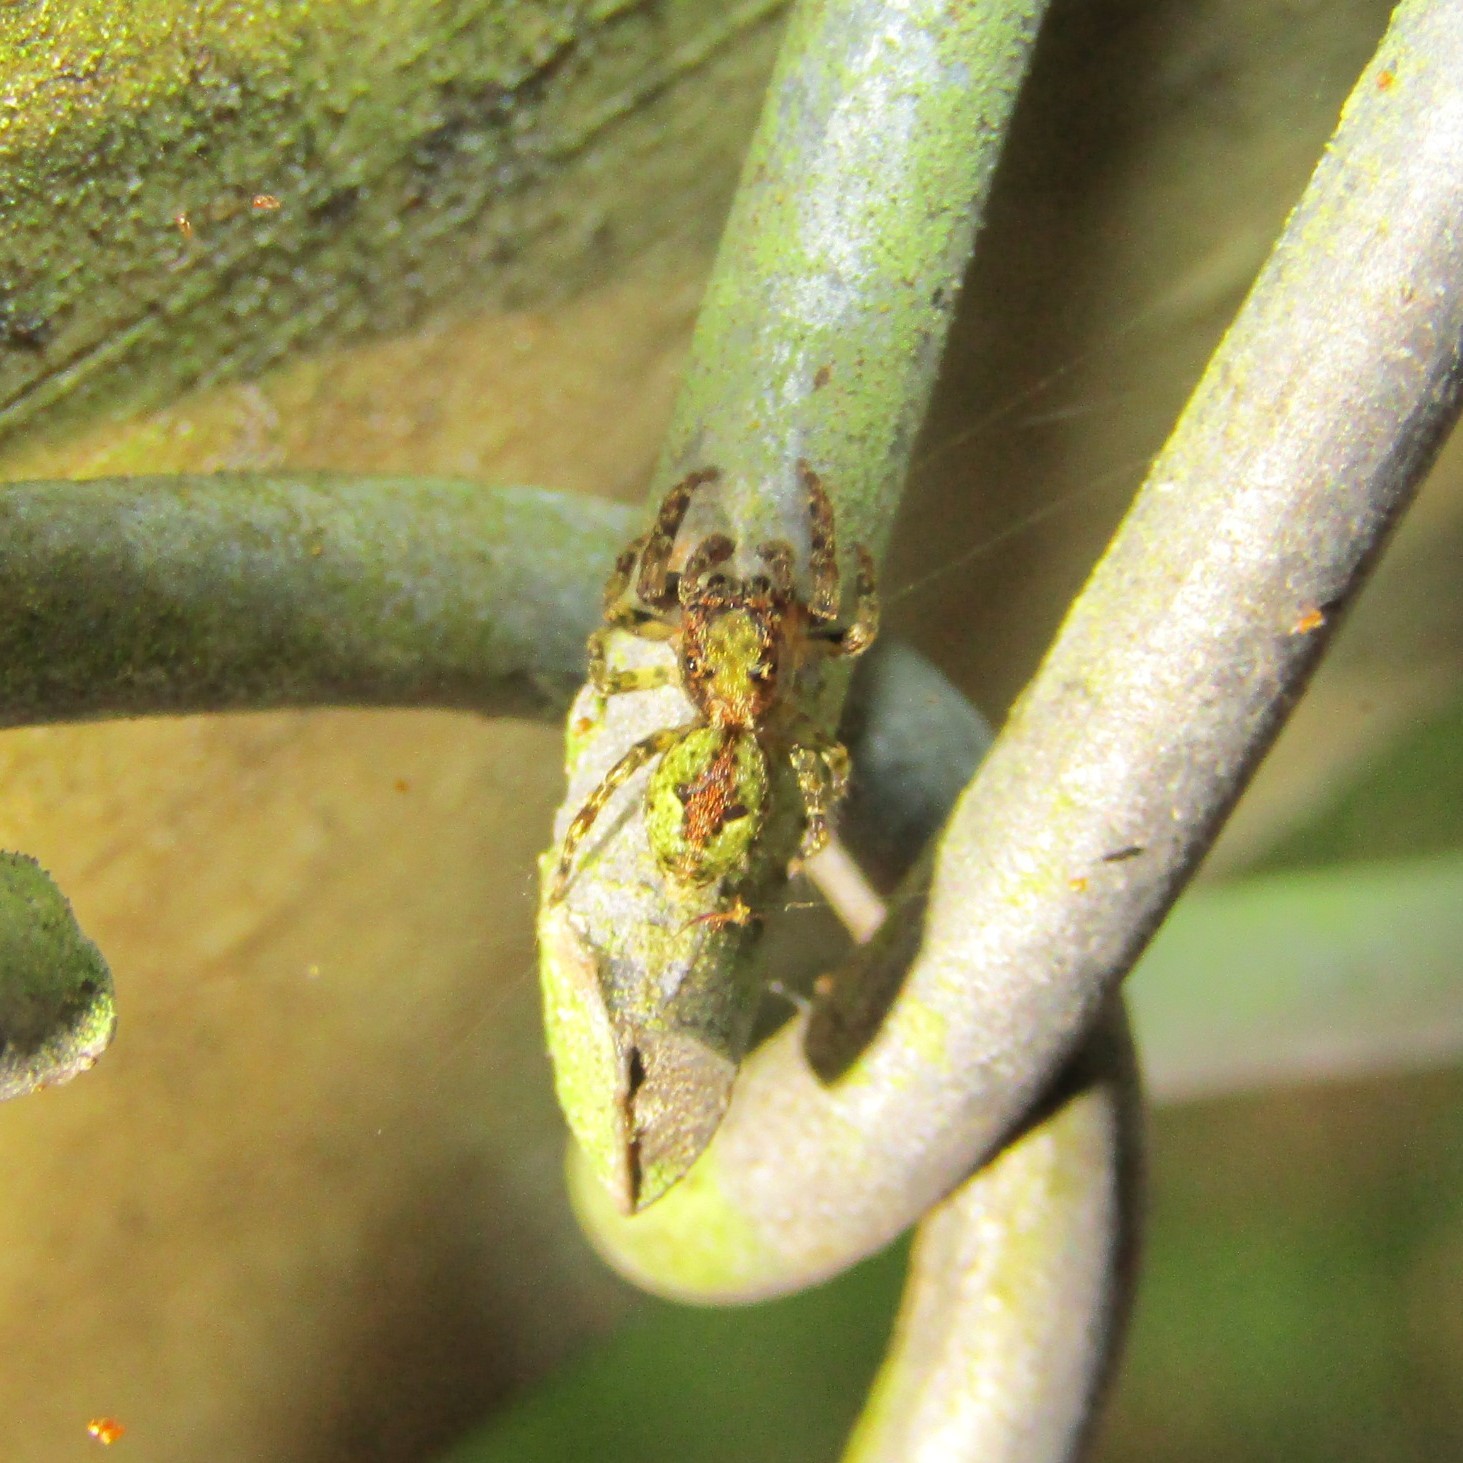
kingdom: Animalia
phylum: Arthropoda
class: Arachnida
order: Araneae
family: Salticidae
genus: Hinewaia
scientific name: Hinewaia embolica
